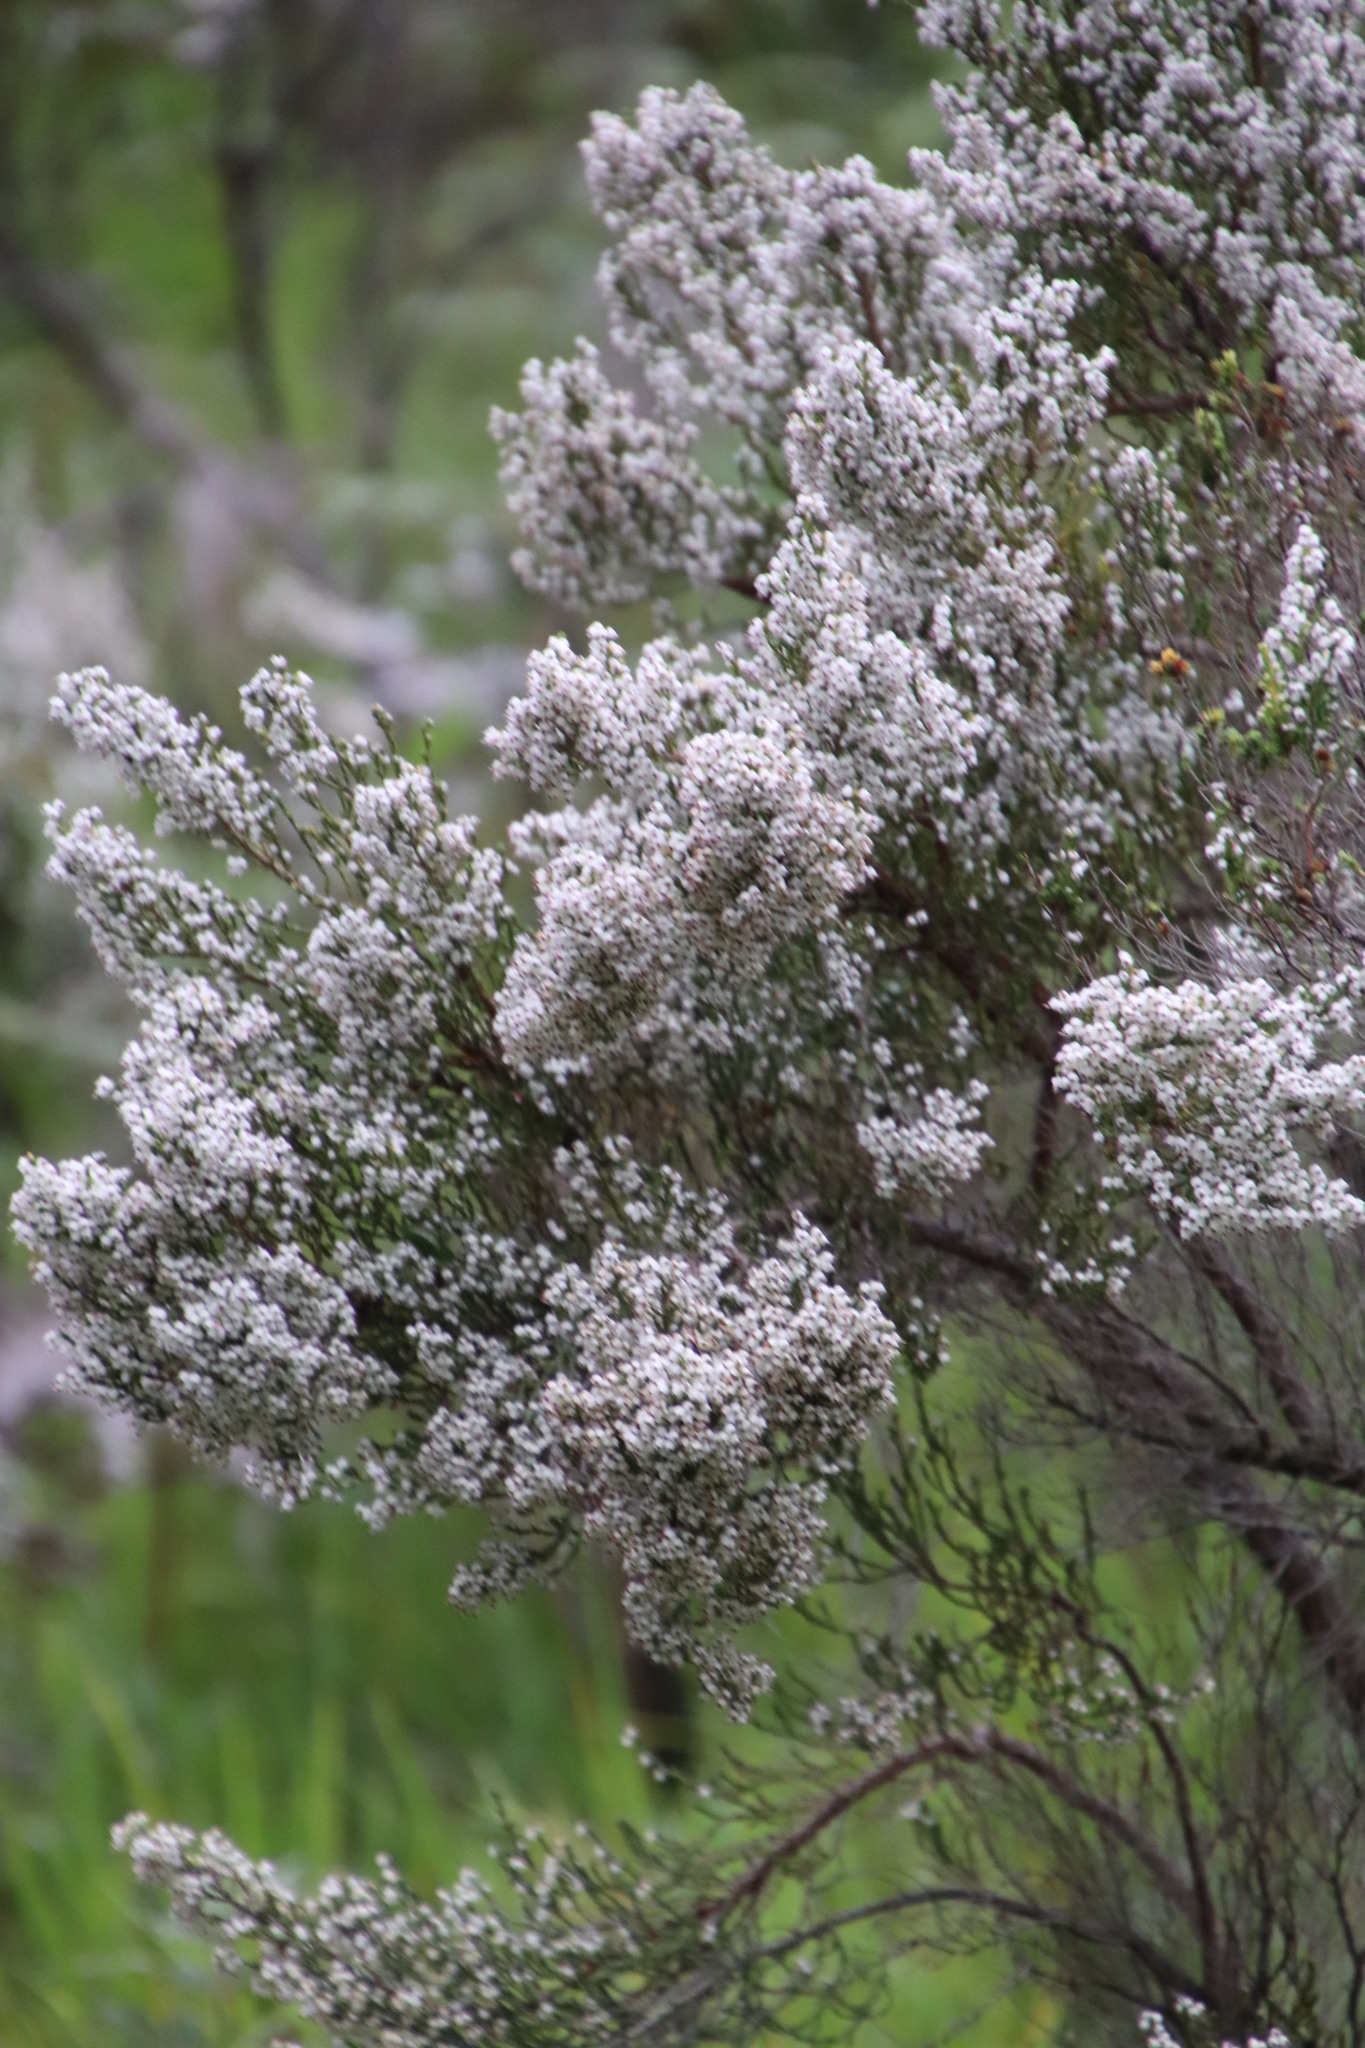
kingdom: Plantae
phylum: Tracheophyta
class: Magnoliopsida
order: Ericales
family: Ericaceae
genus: Erica
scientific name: Erica drakensbergensis
